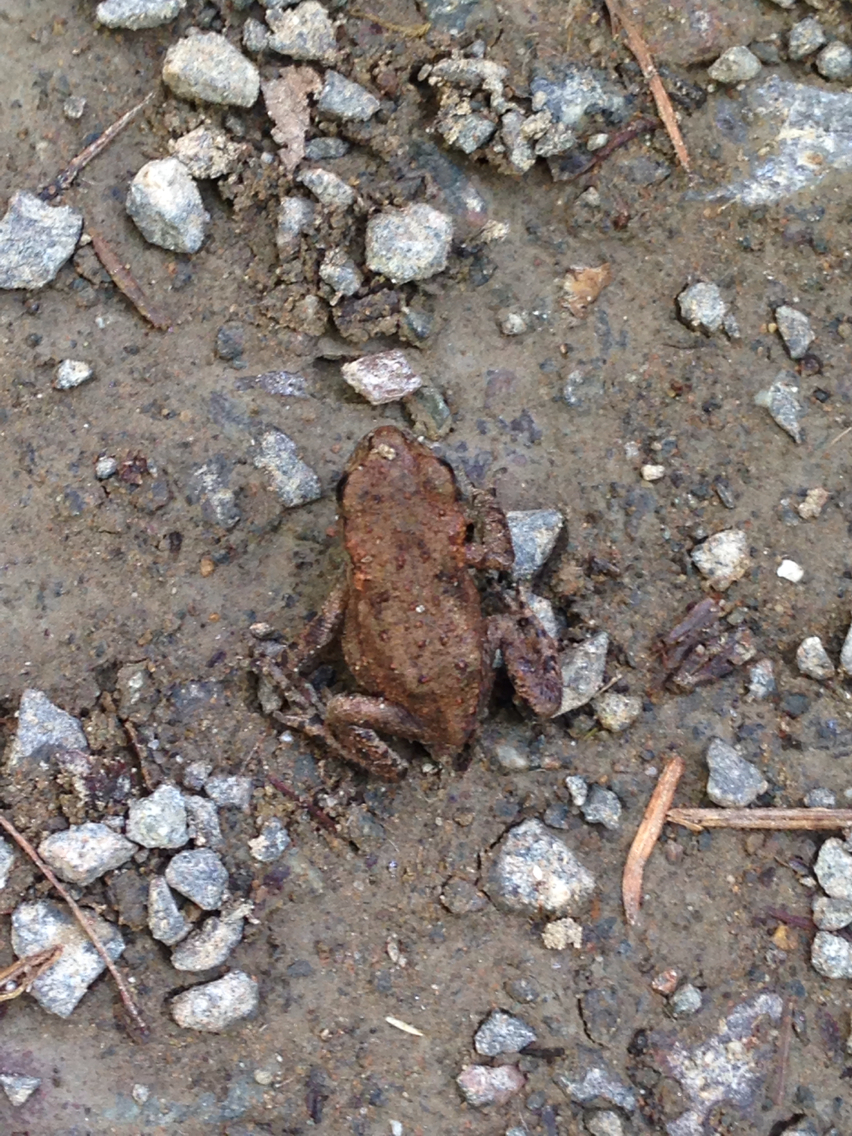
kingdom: Animalia
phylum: Chordata
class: Amphibia
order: Anura
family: Bufonidae
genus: Bufo
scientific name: Bufo bufo
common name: Common toad
